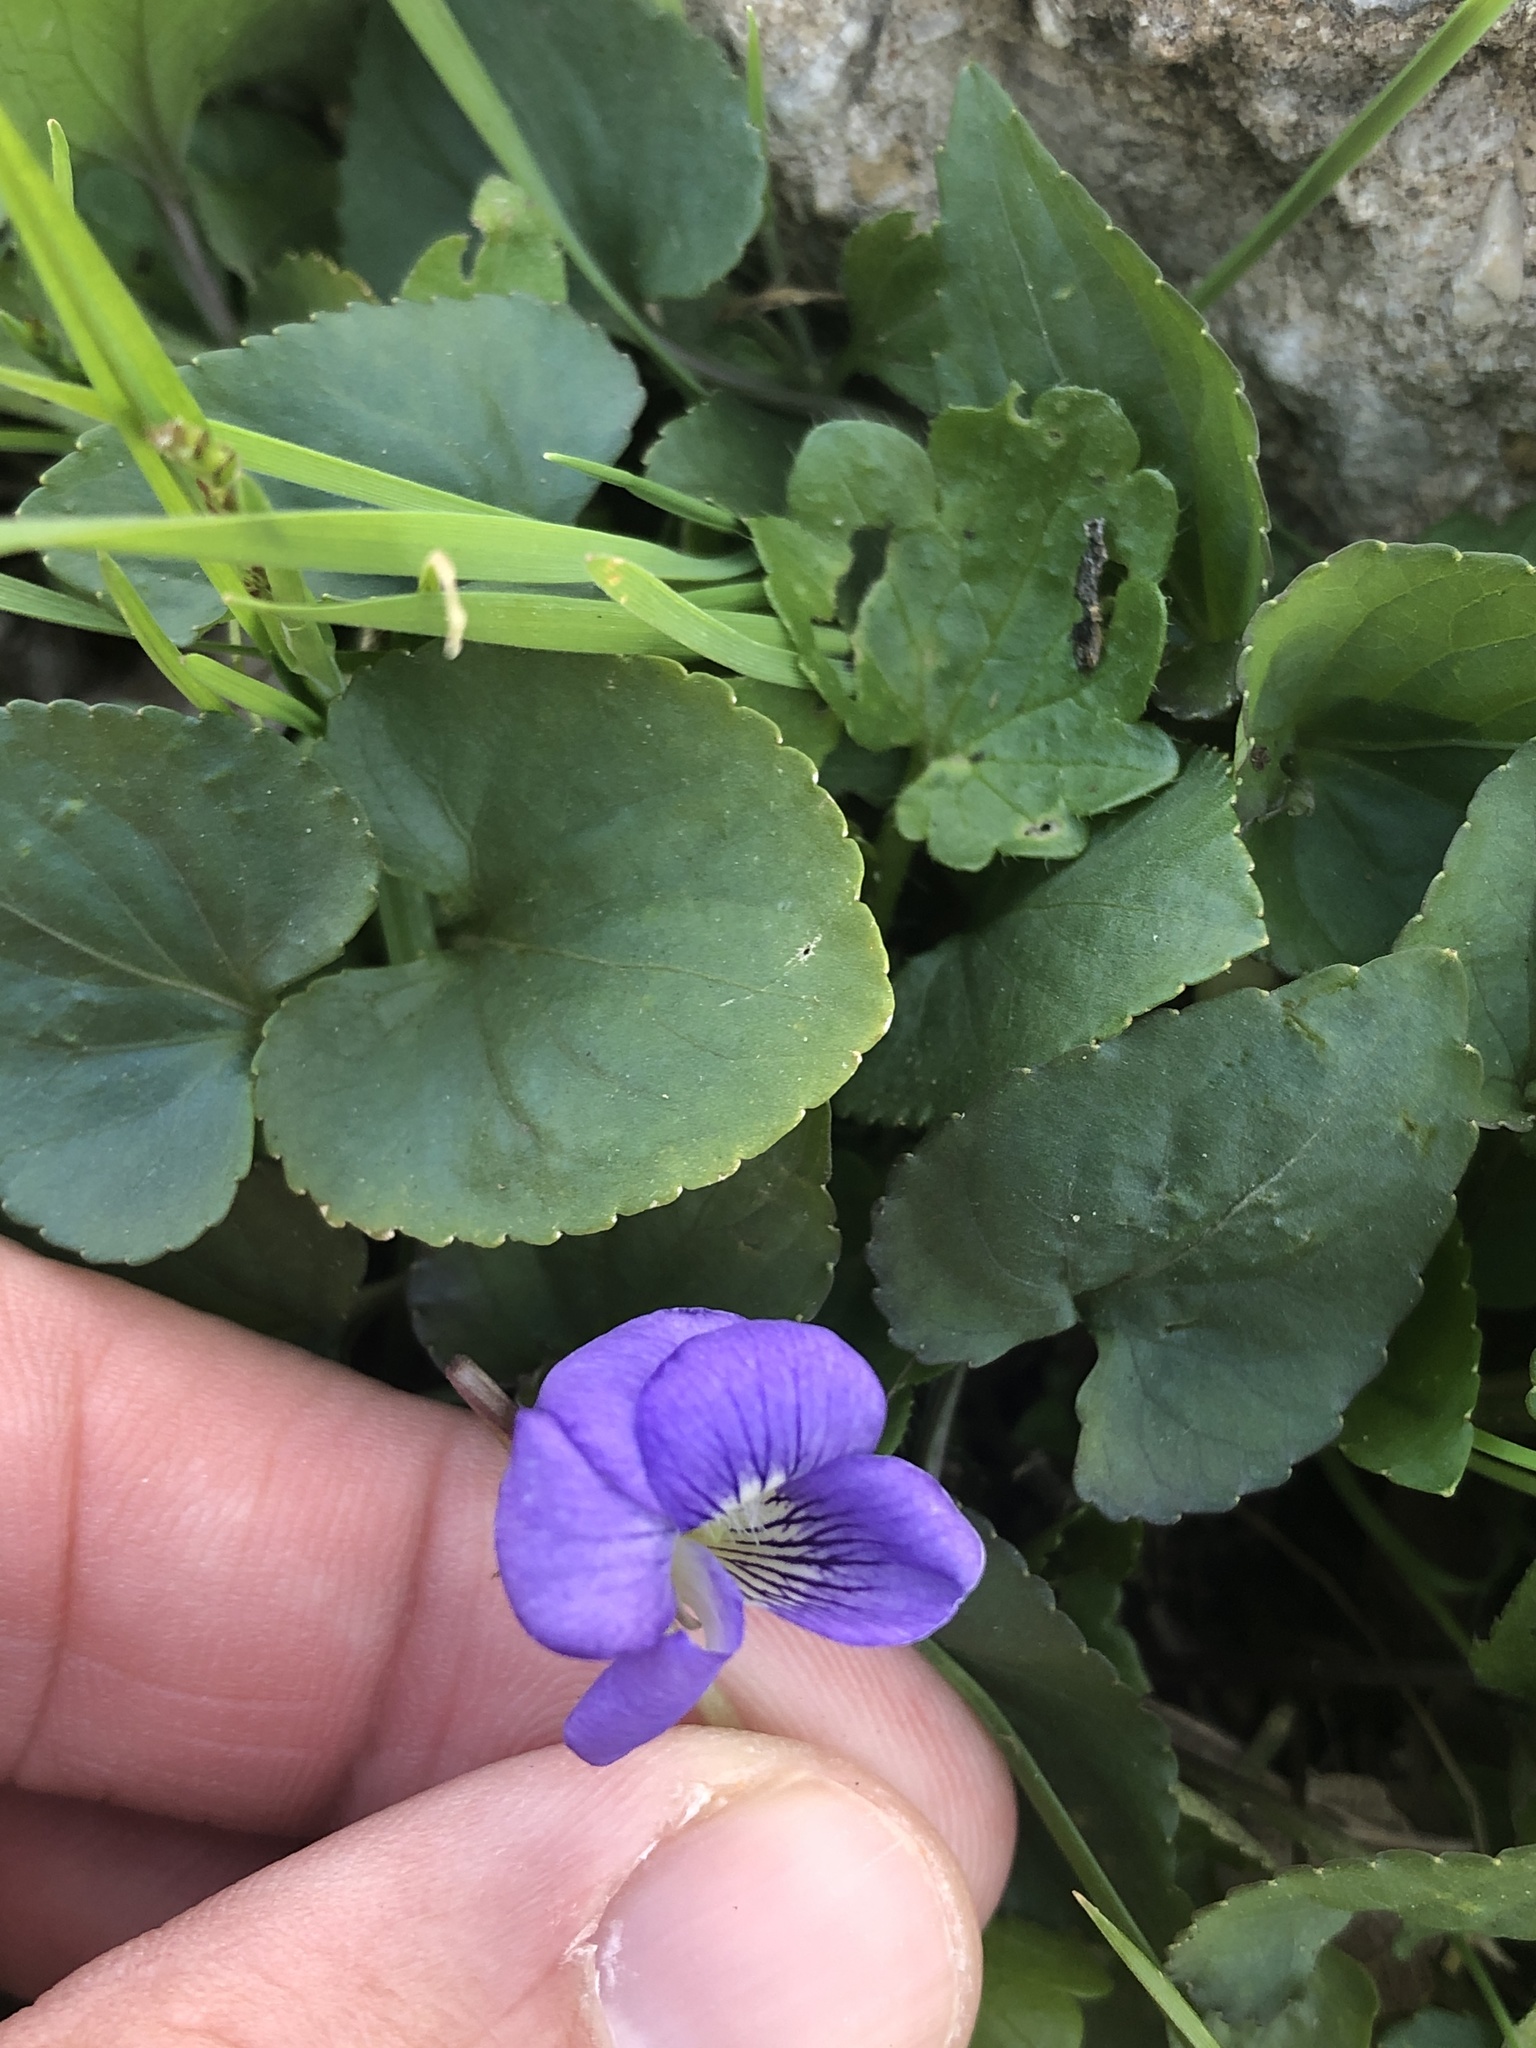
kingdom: Plantae
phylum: Tracheophyta
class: Magnoliopsida
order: Malpighiales
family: Violaceae
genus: Viola
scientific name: Viola sororia
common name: Dooryard violet
